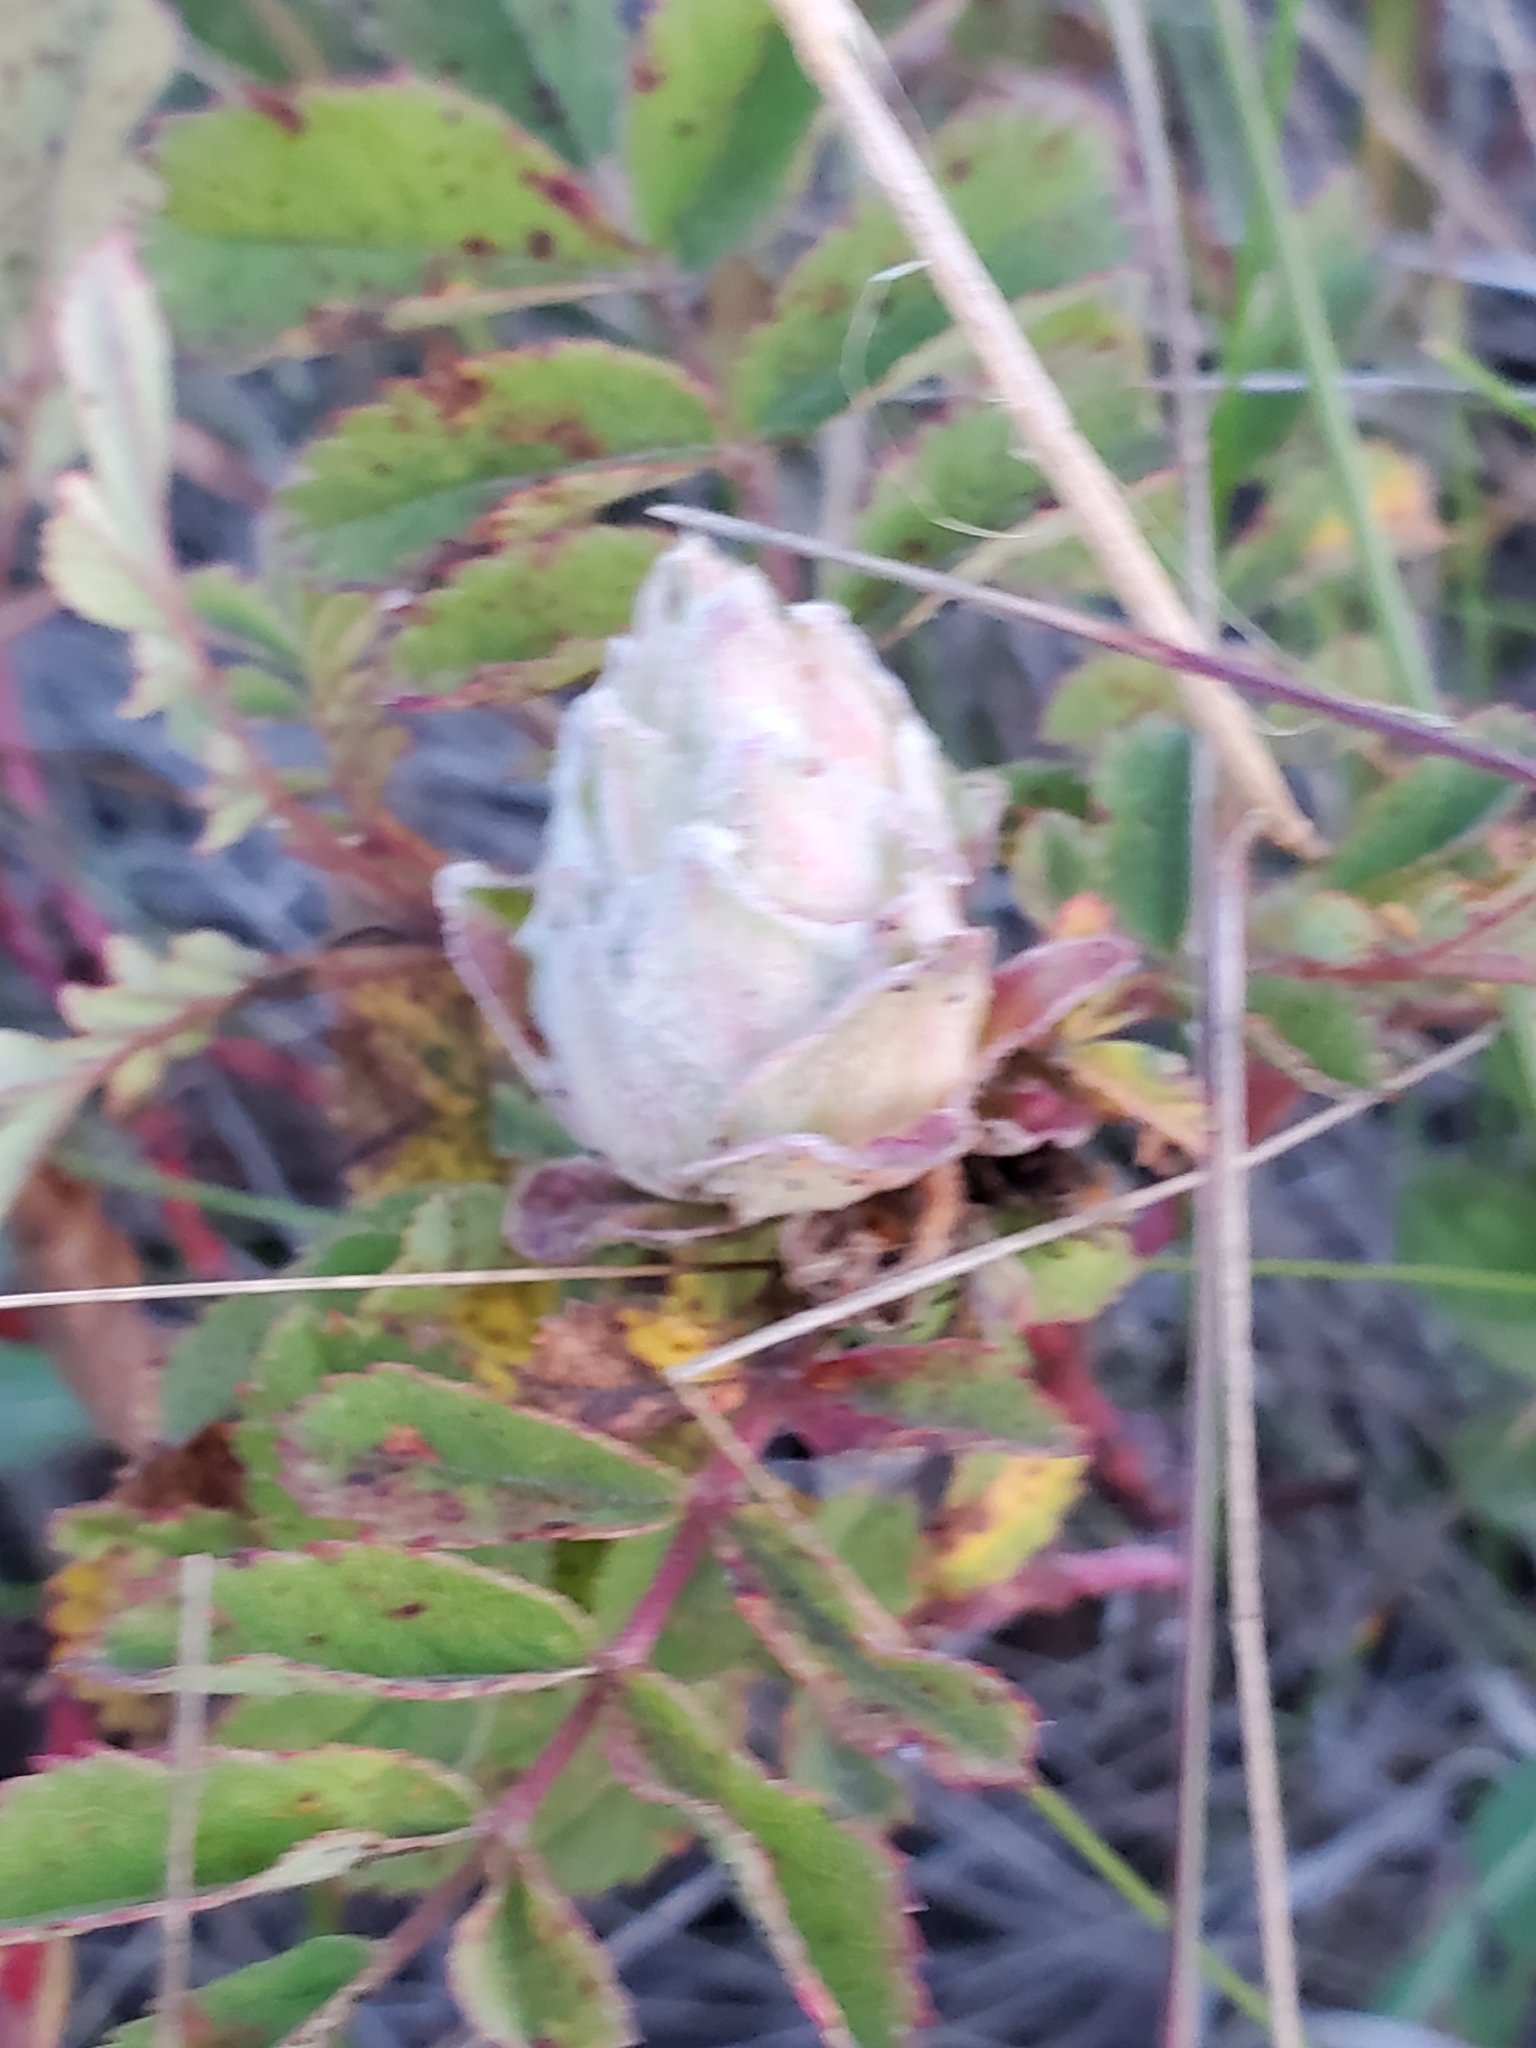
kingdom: Animalia
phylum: Arthropoda
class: Insecta
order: Diptera
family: Cecidomyiidae
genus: Rabdophaga
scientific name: Rabdophaga rosacea
